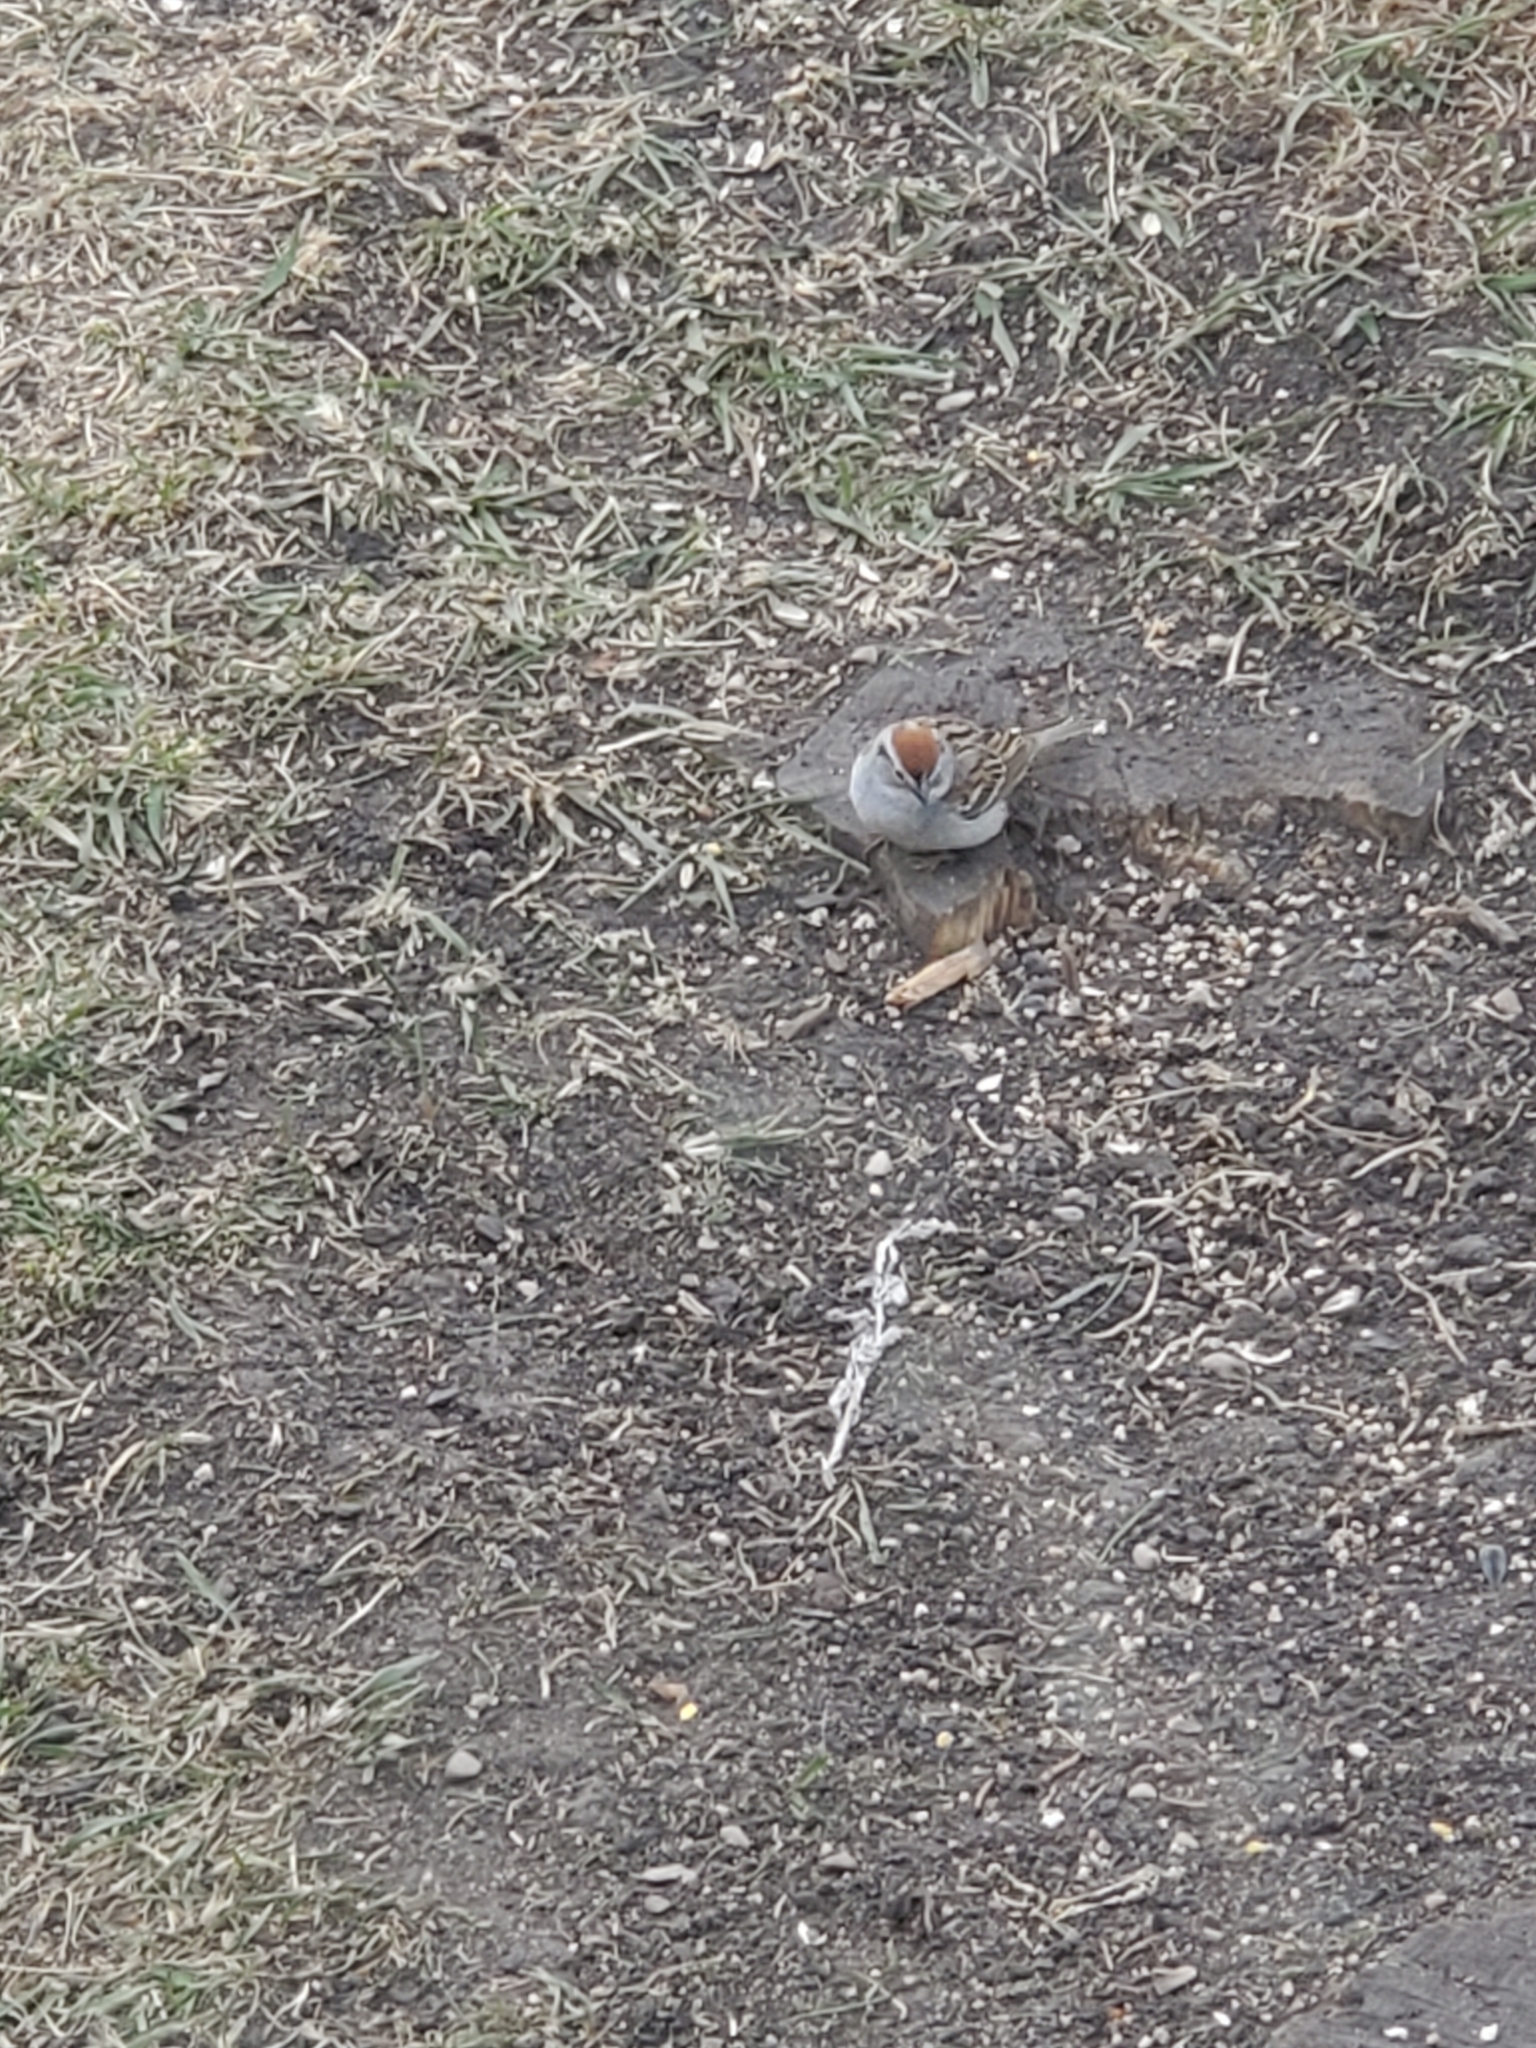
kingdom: Animalia
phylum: Chordata
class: Aves
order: Passeriformes
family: Passerellidae
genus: Spizella
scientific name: Spizella passerina
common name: Chipping sparrow
